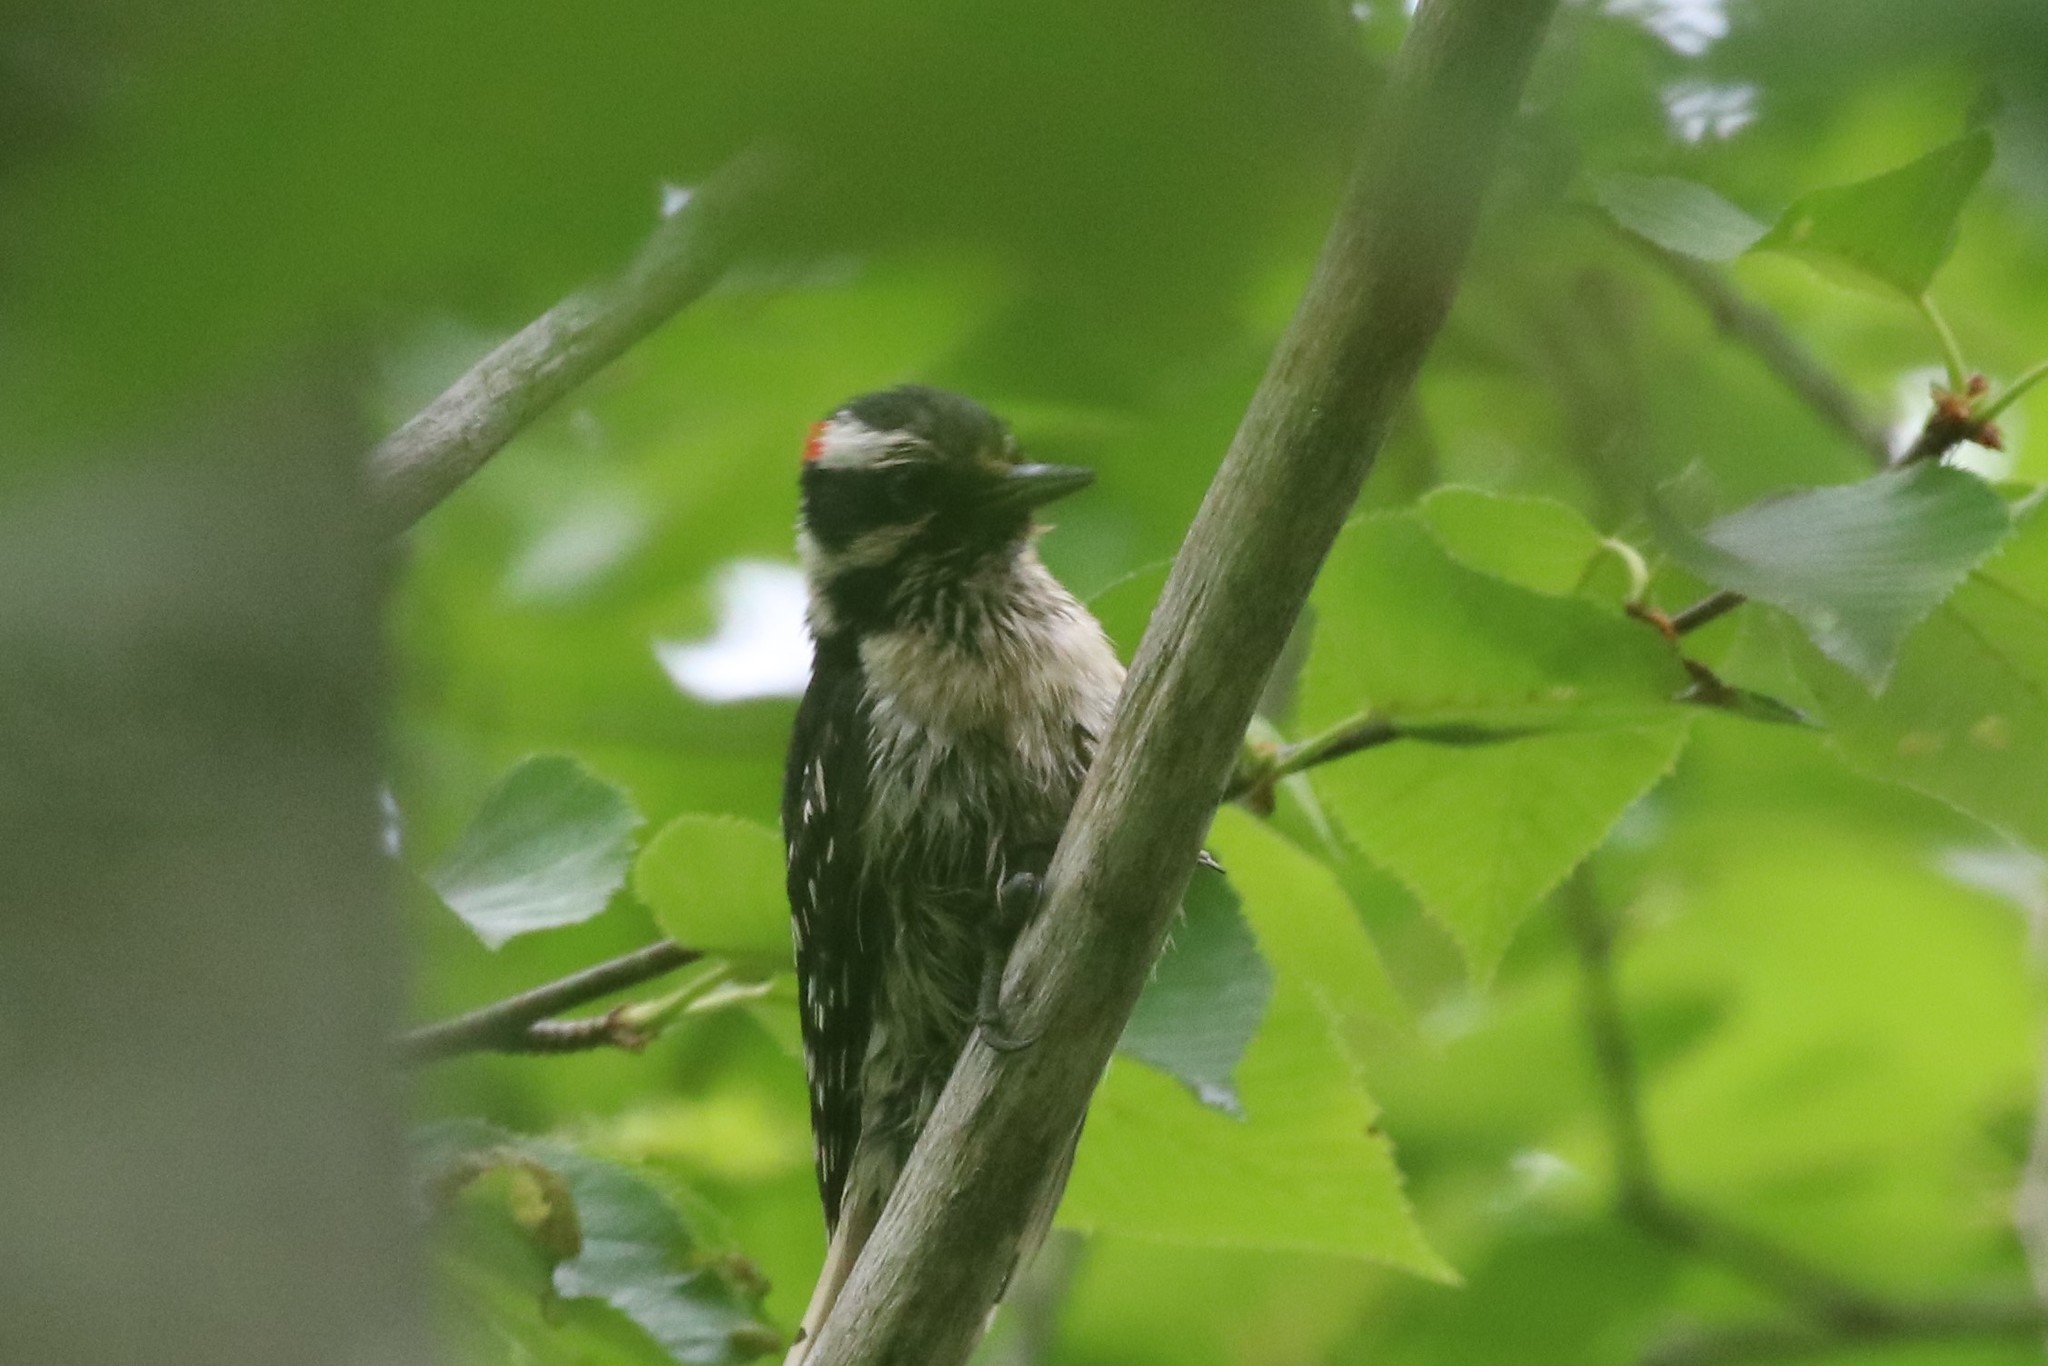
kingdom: Animalia
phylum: Chordata
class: Aves
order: Piciformes
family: Picidae
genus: Dryobates
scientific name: Dryobates pubescens
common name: Downy woodpecker
